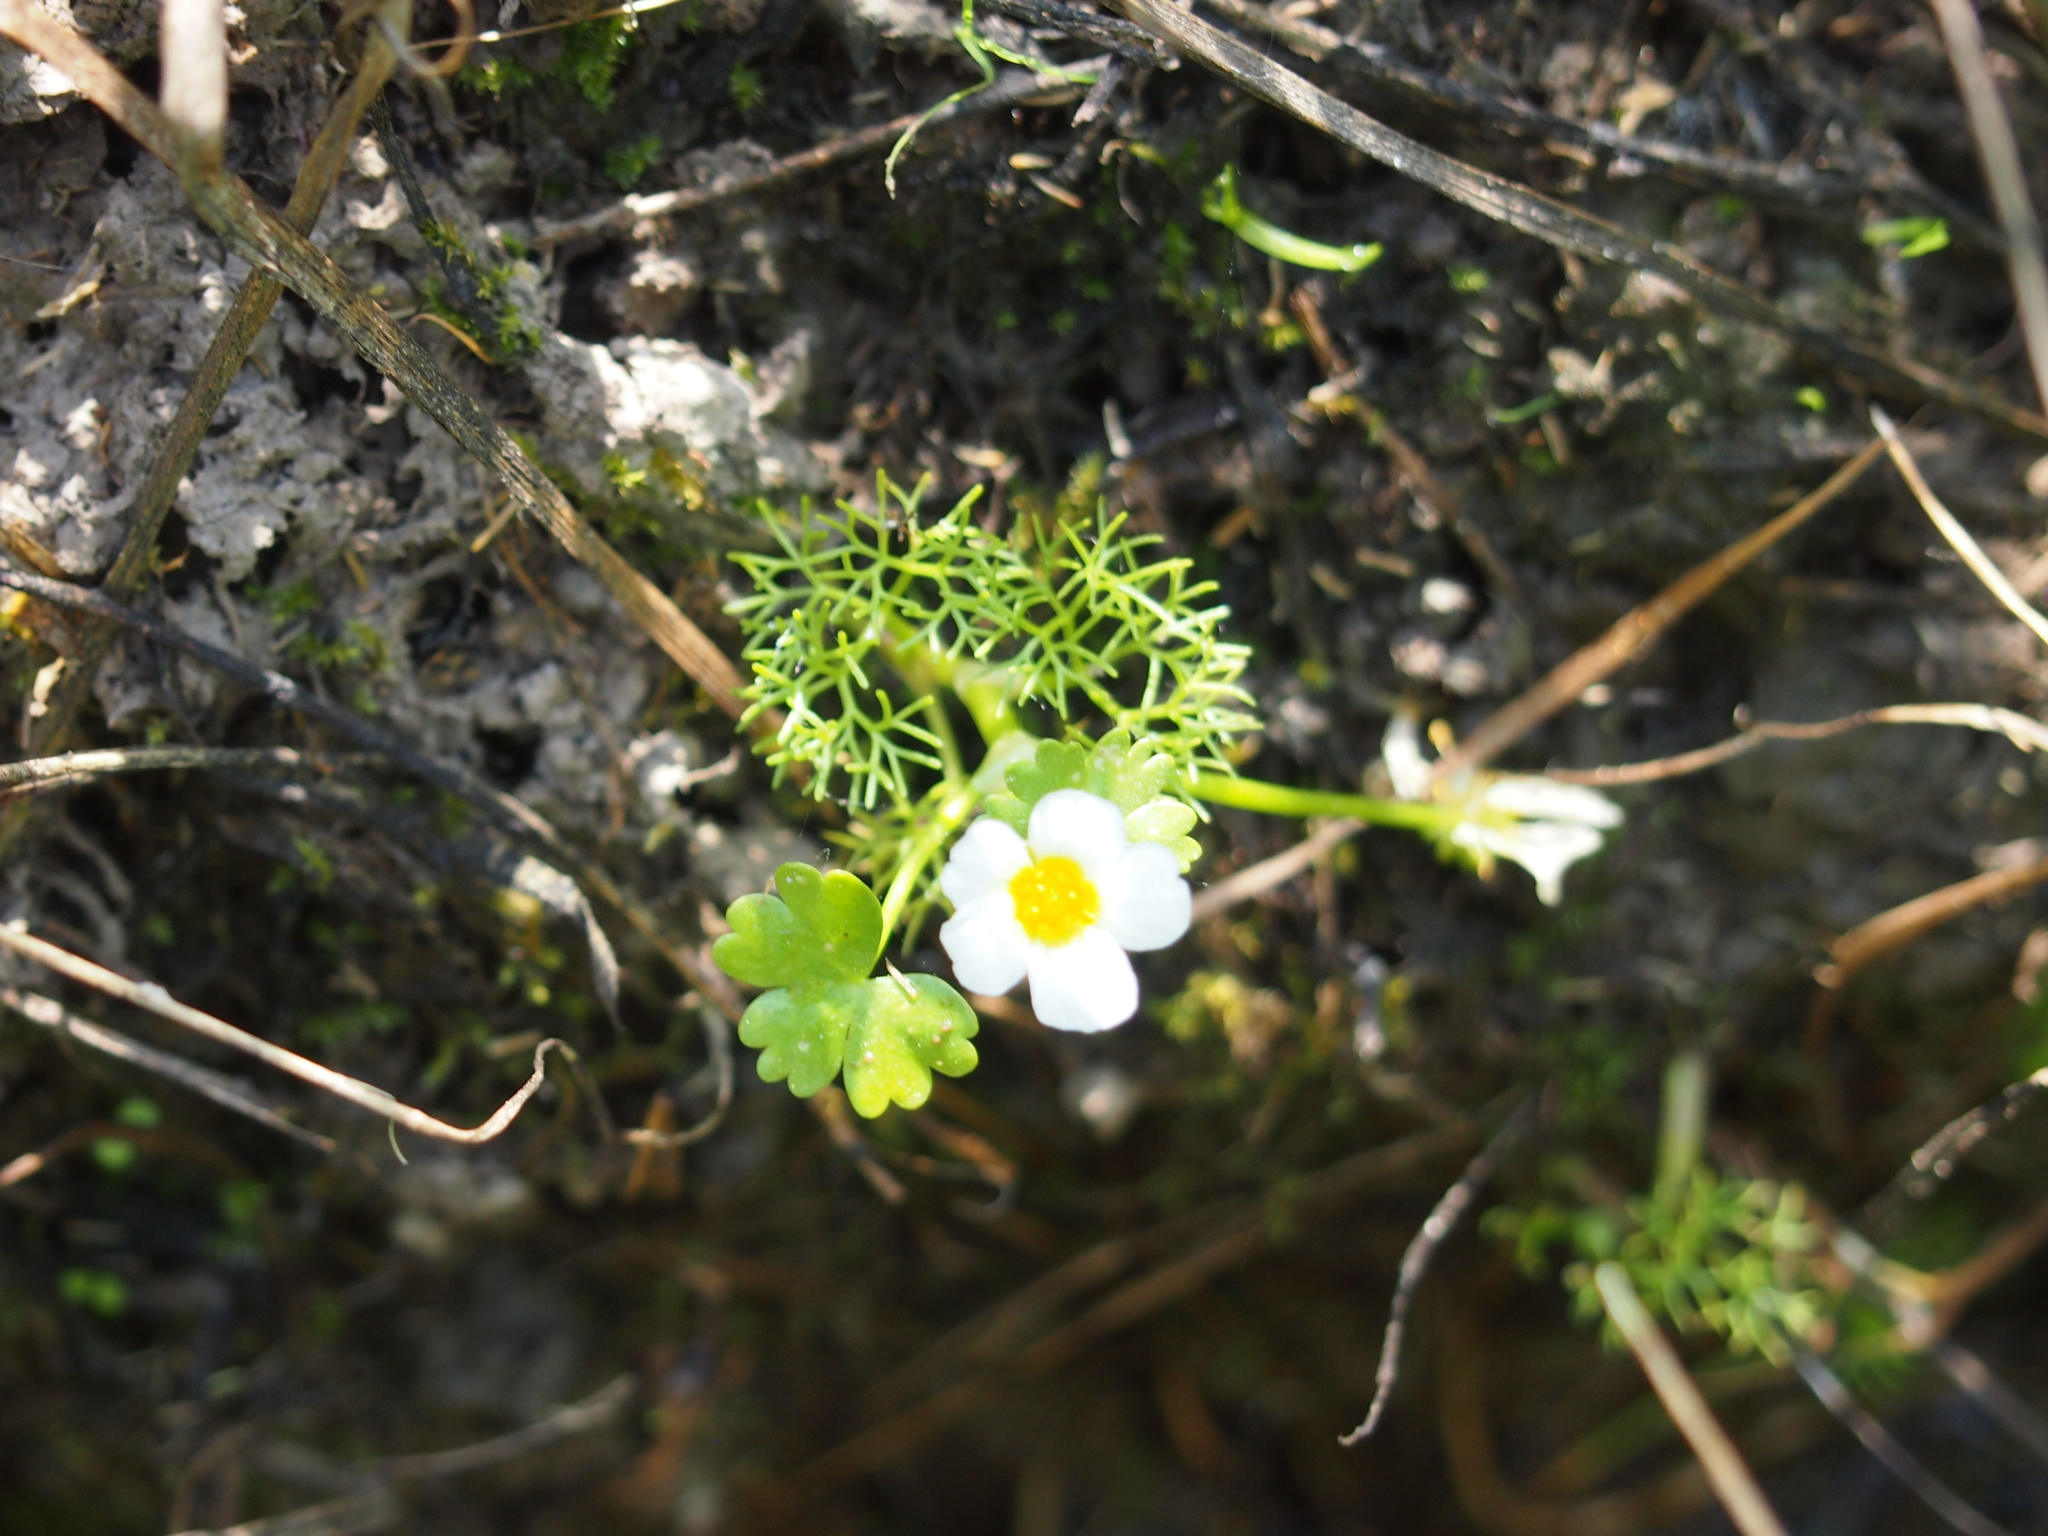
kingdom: Plantae
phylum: Tracheophyta
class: Magnoliopsida
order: Ranunculales
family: Ranunculaceae
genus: Ranunculus
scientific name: Ranunculus peltatus
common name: Pond water-crowfoot
